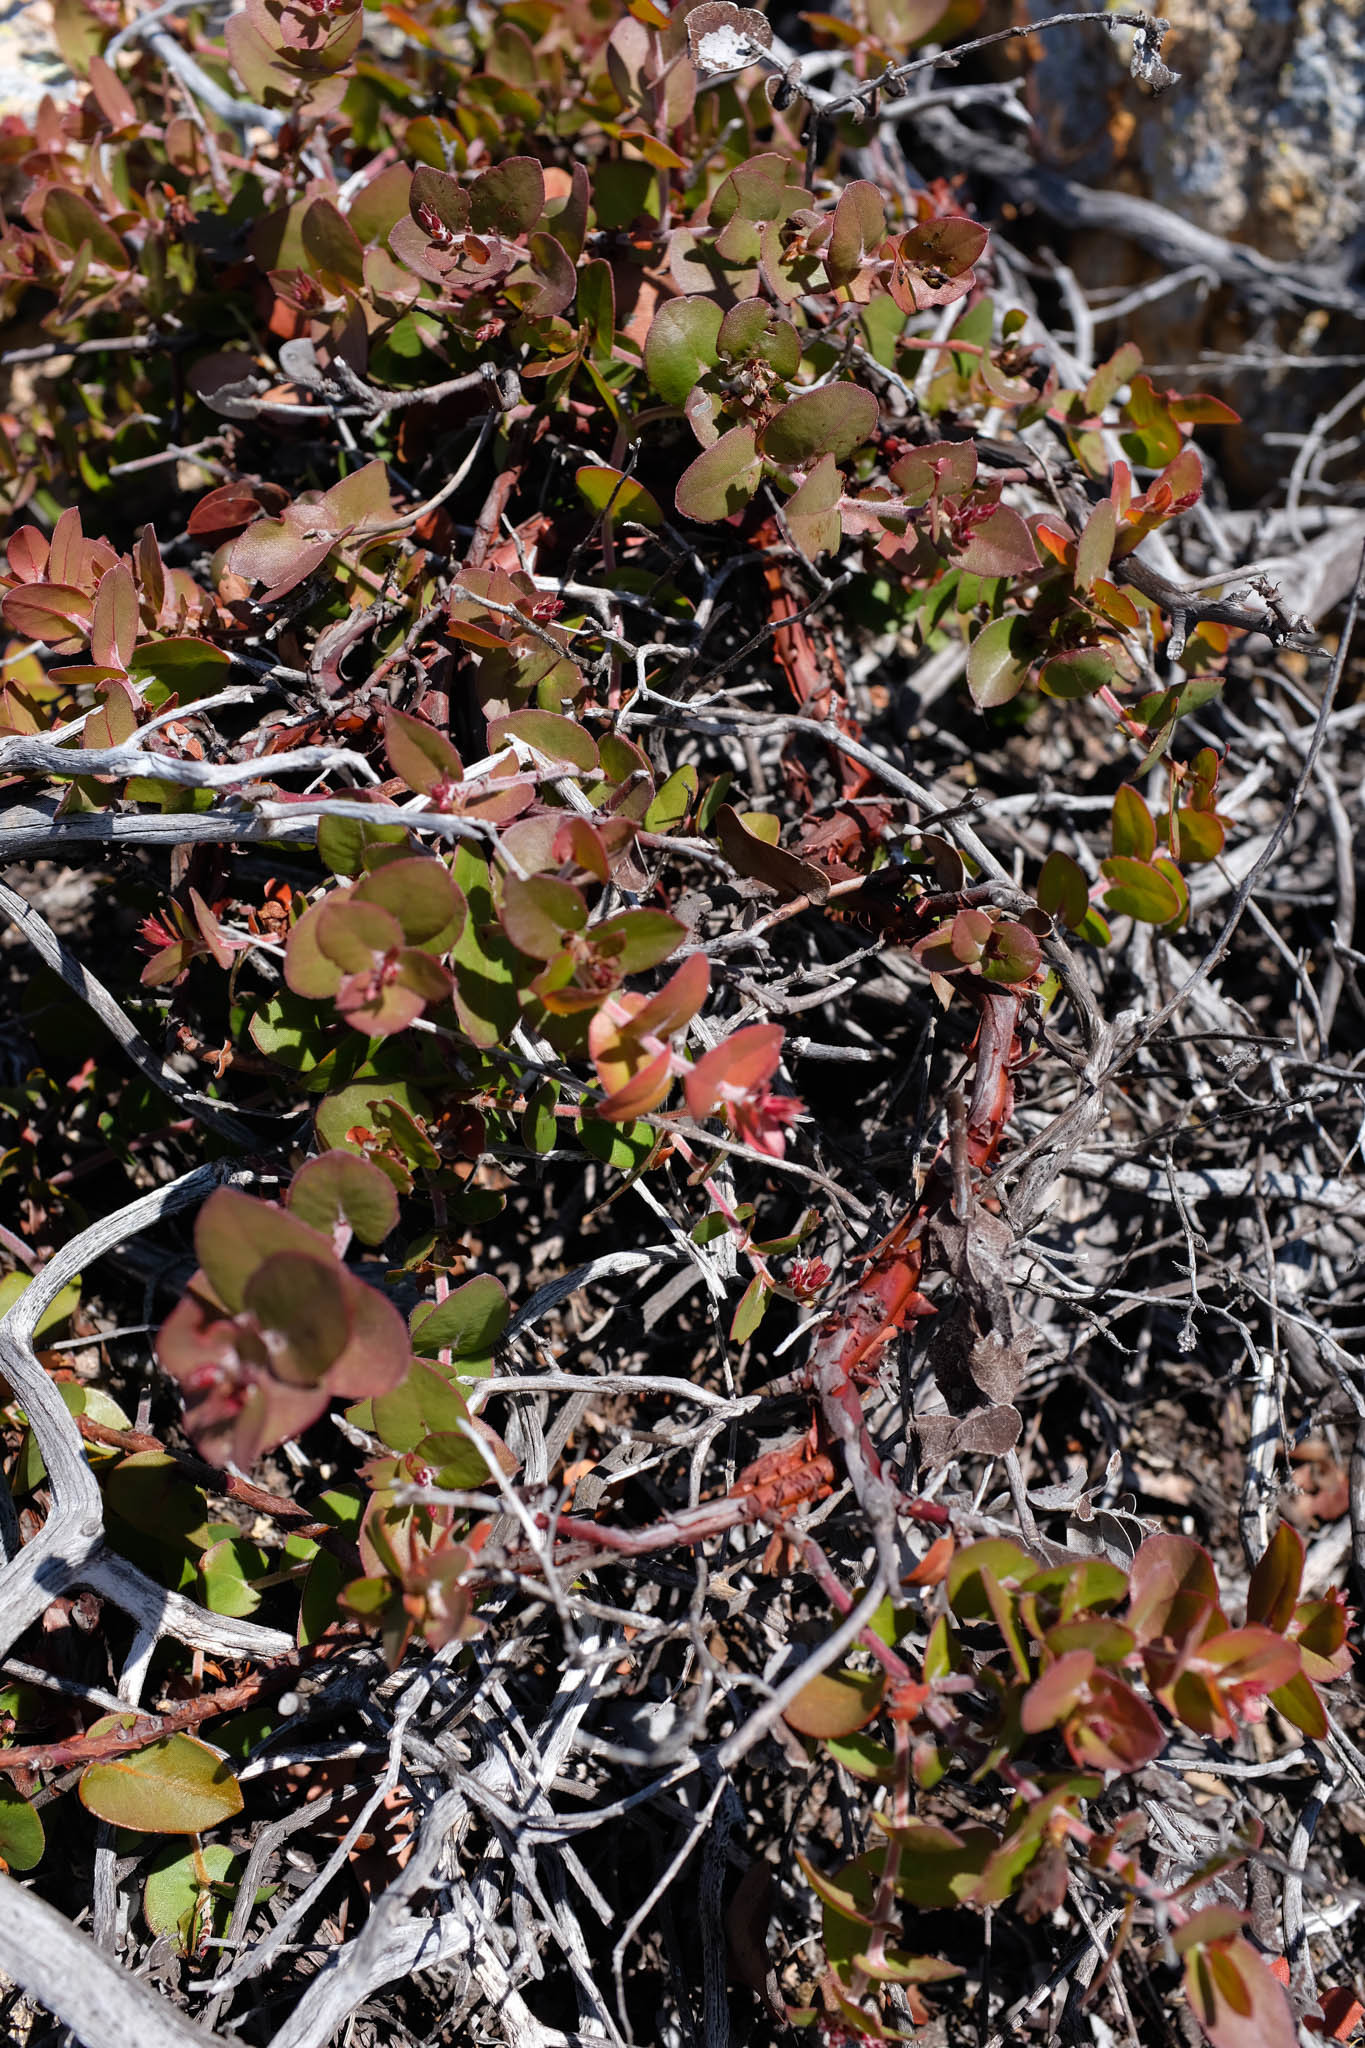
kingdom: Plantae
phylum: Tracheophyta
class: Magnoliopsida
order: Ericales
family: Ericaceae
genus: Arctostaphylos
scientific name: Arctostaphylos osoensis
